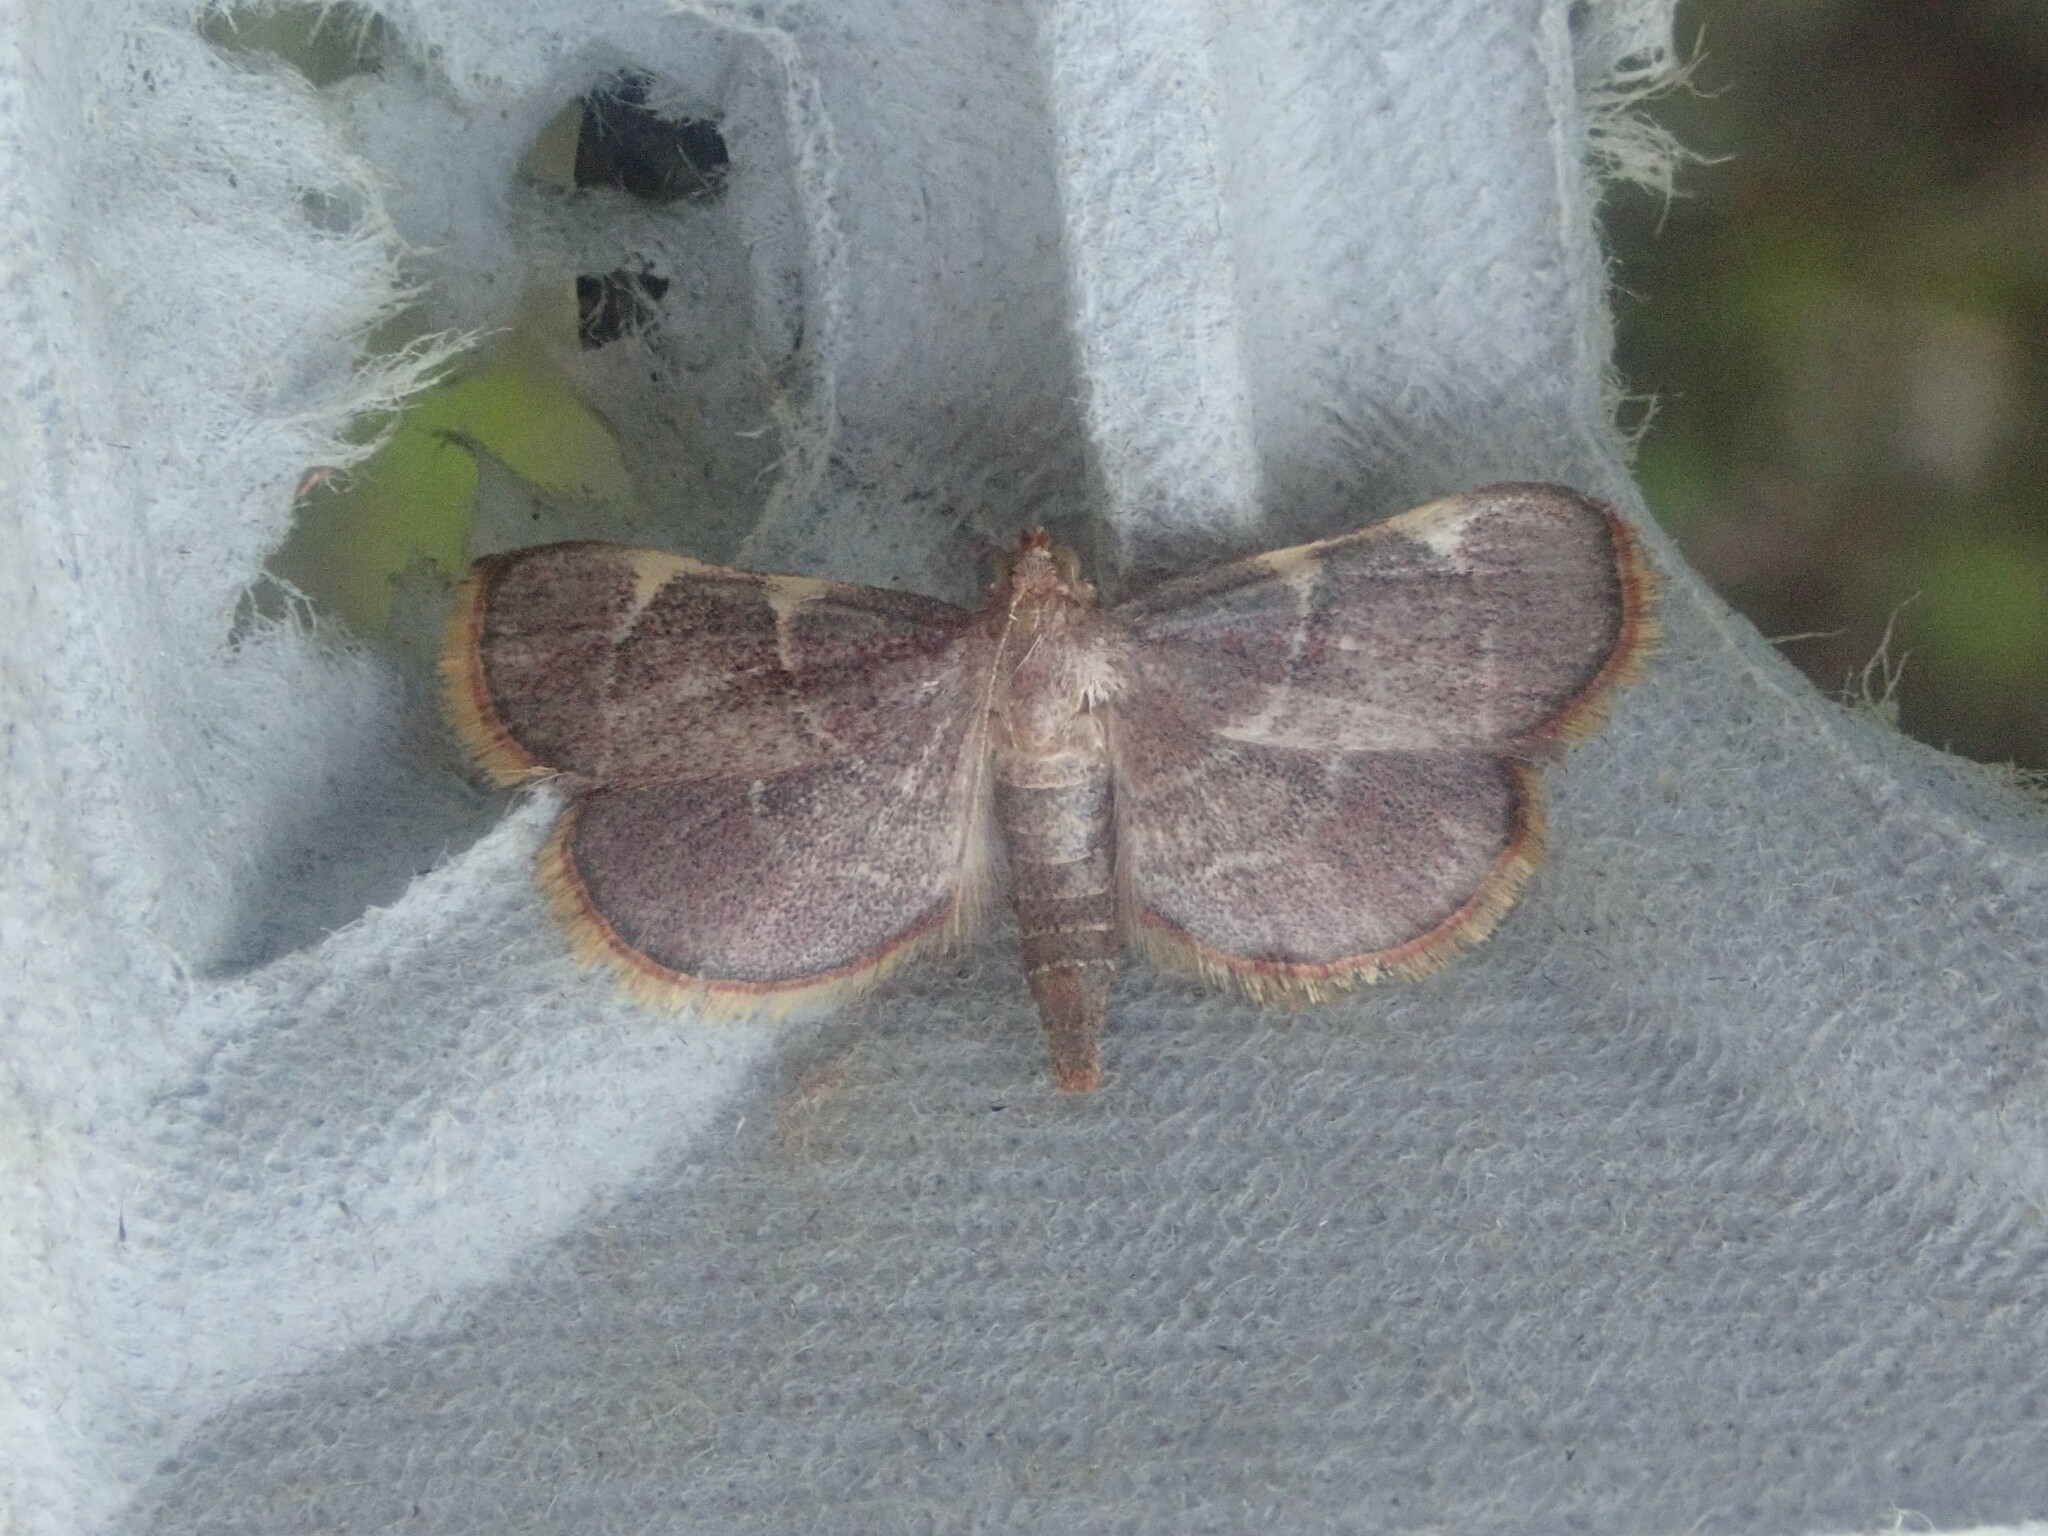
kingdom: Animalia
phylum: Arthropoda
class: Insecta
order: Lepidoptera
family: Pyralidae
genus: Hypsopygia
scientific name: Hypsopygia olinalis
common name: Yellow-fringed dolichomia moth
